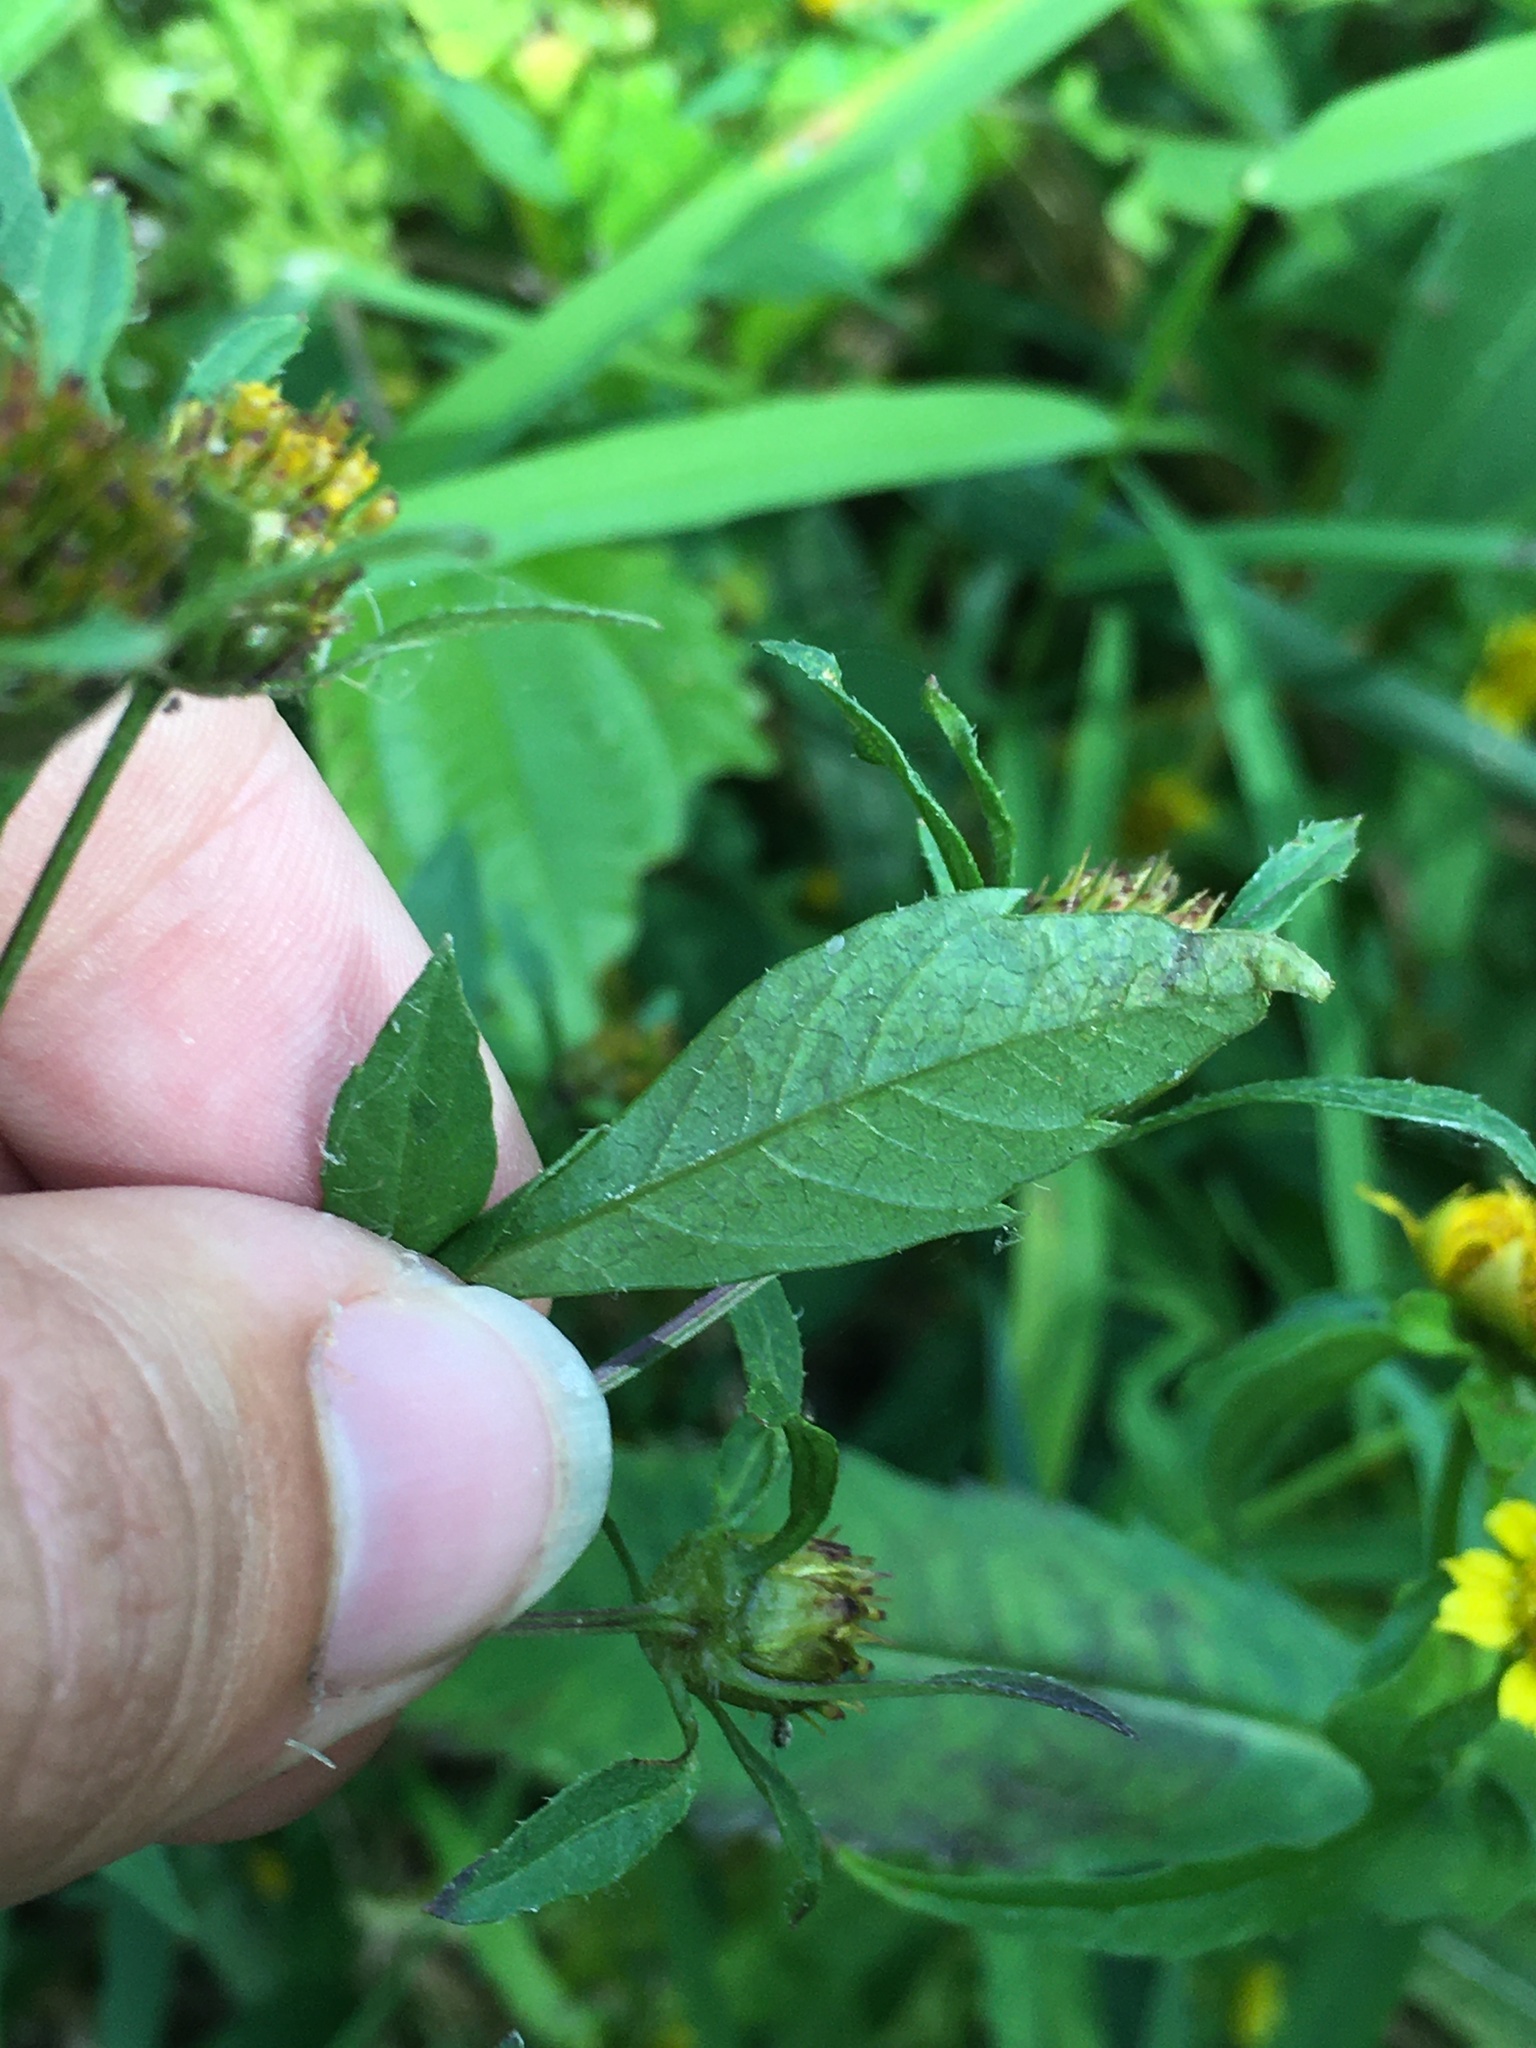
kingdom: Animalia
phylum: Arthropoda
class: Insecta
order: Diptera
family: Agromyzidae
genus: Liriomyza
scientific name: Liriomyza carphephori
